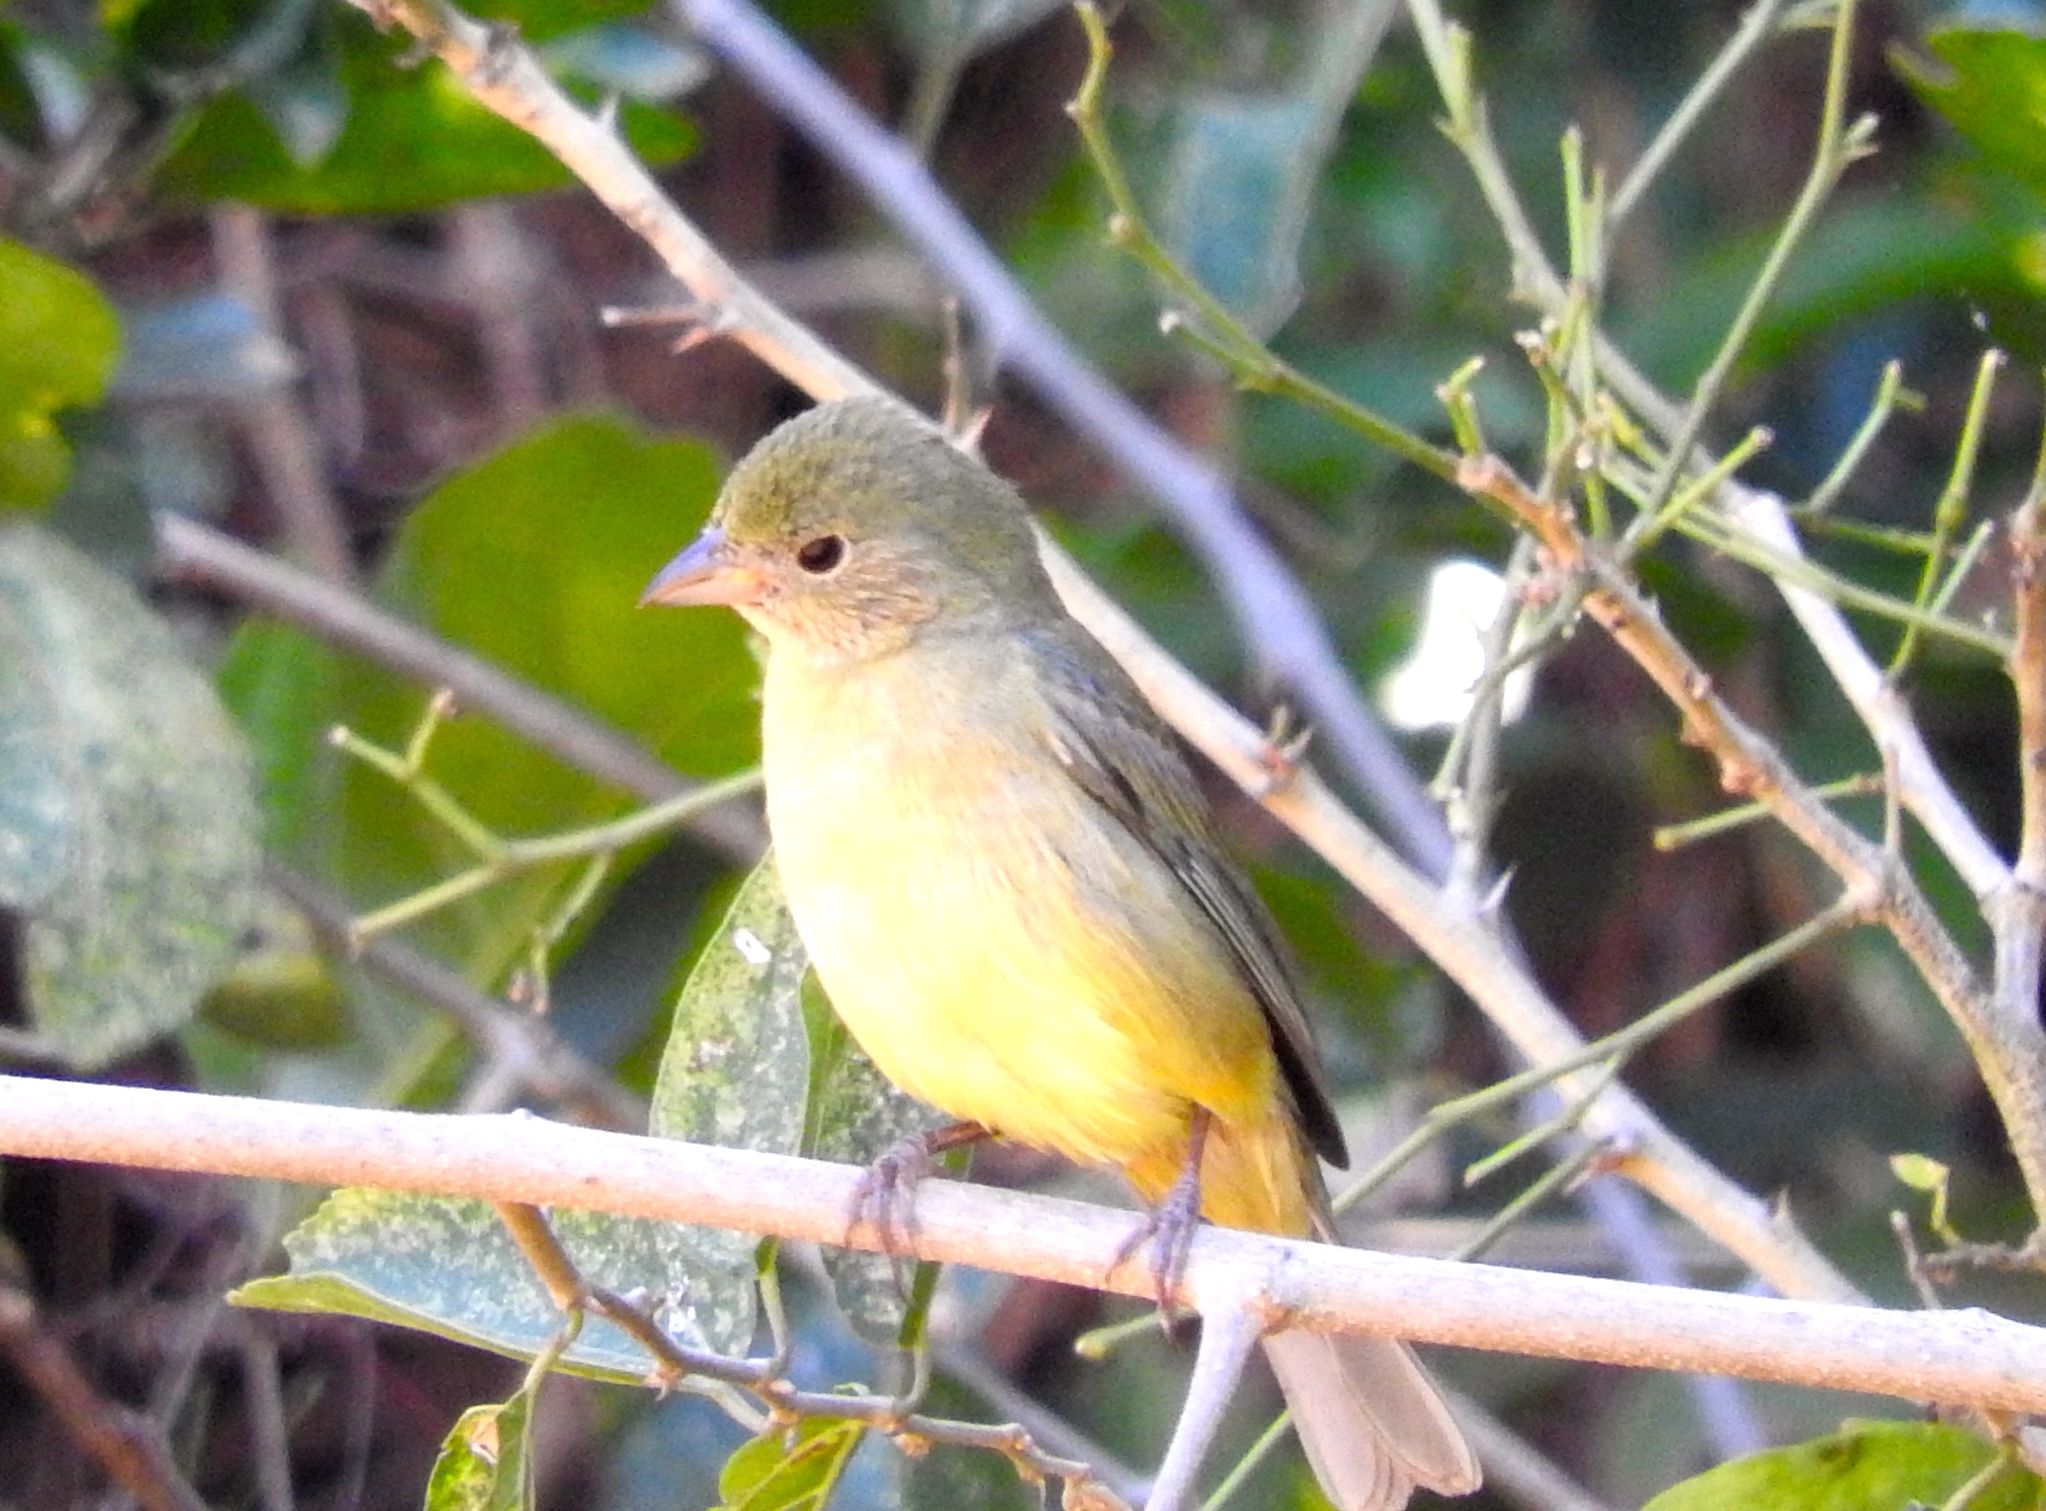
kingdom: Animalia
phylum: Chordata
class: Aves
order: Passeriformes
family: Cardinalidae
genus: Passerina
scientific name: Passerina ciris
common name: Painted bunting
